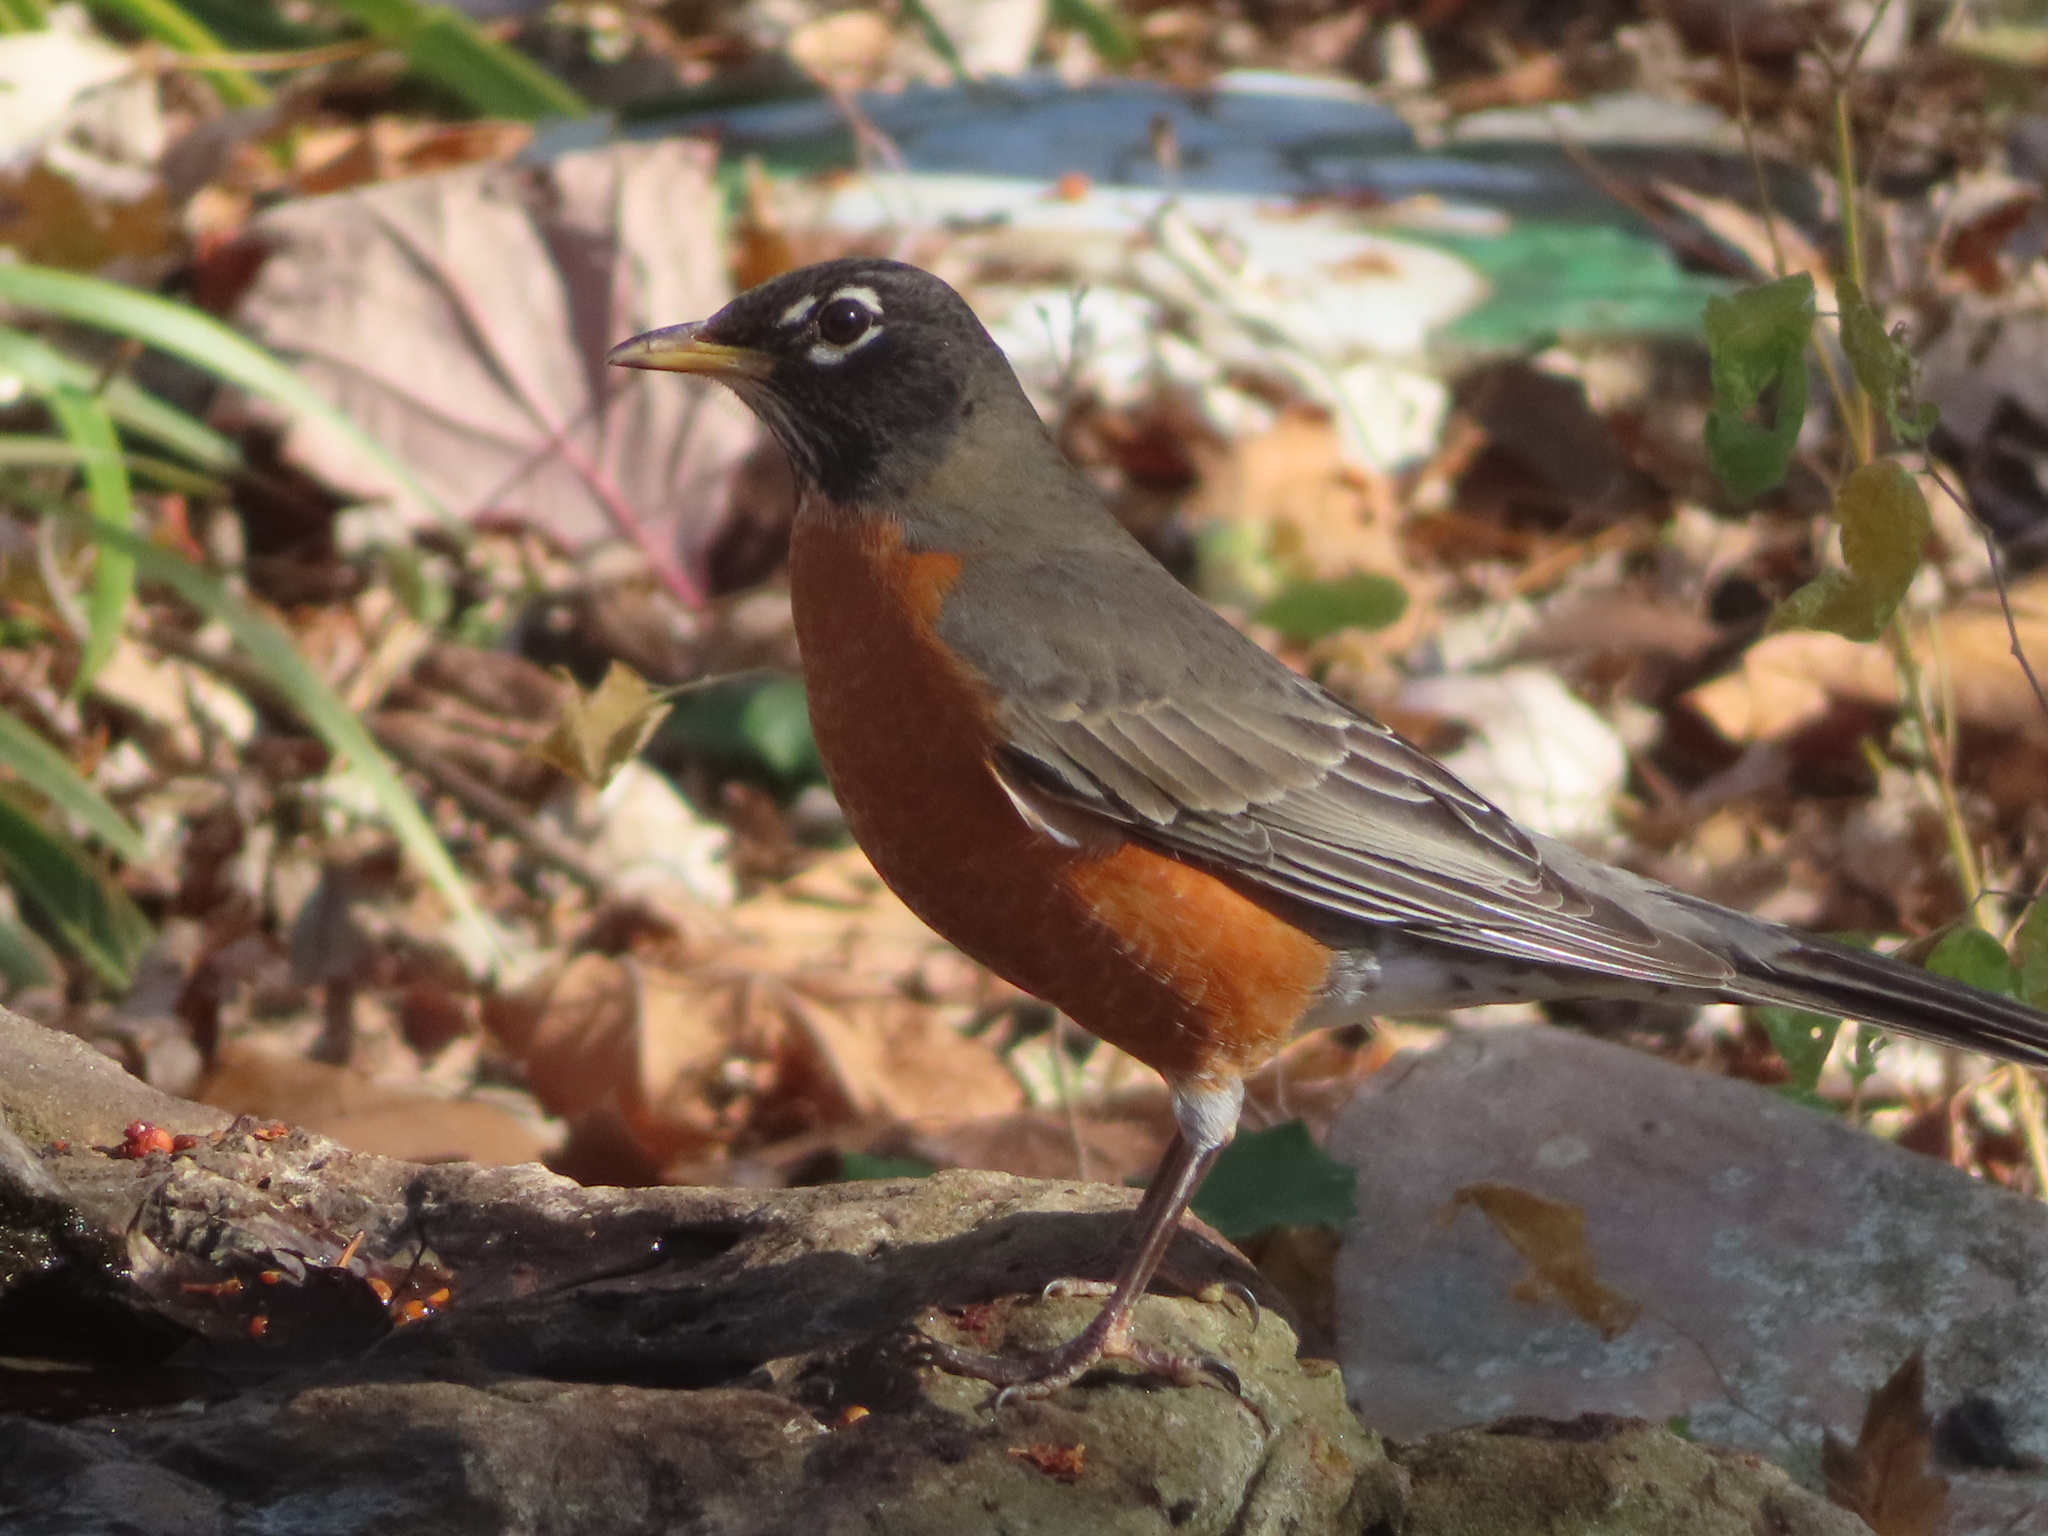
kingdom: Animalia
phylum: Chordata
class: Aves
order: Passeriformes
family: Turdidae
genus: Turdus
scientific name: Turdus migratorius
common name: American robin
